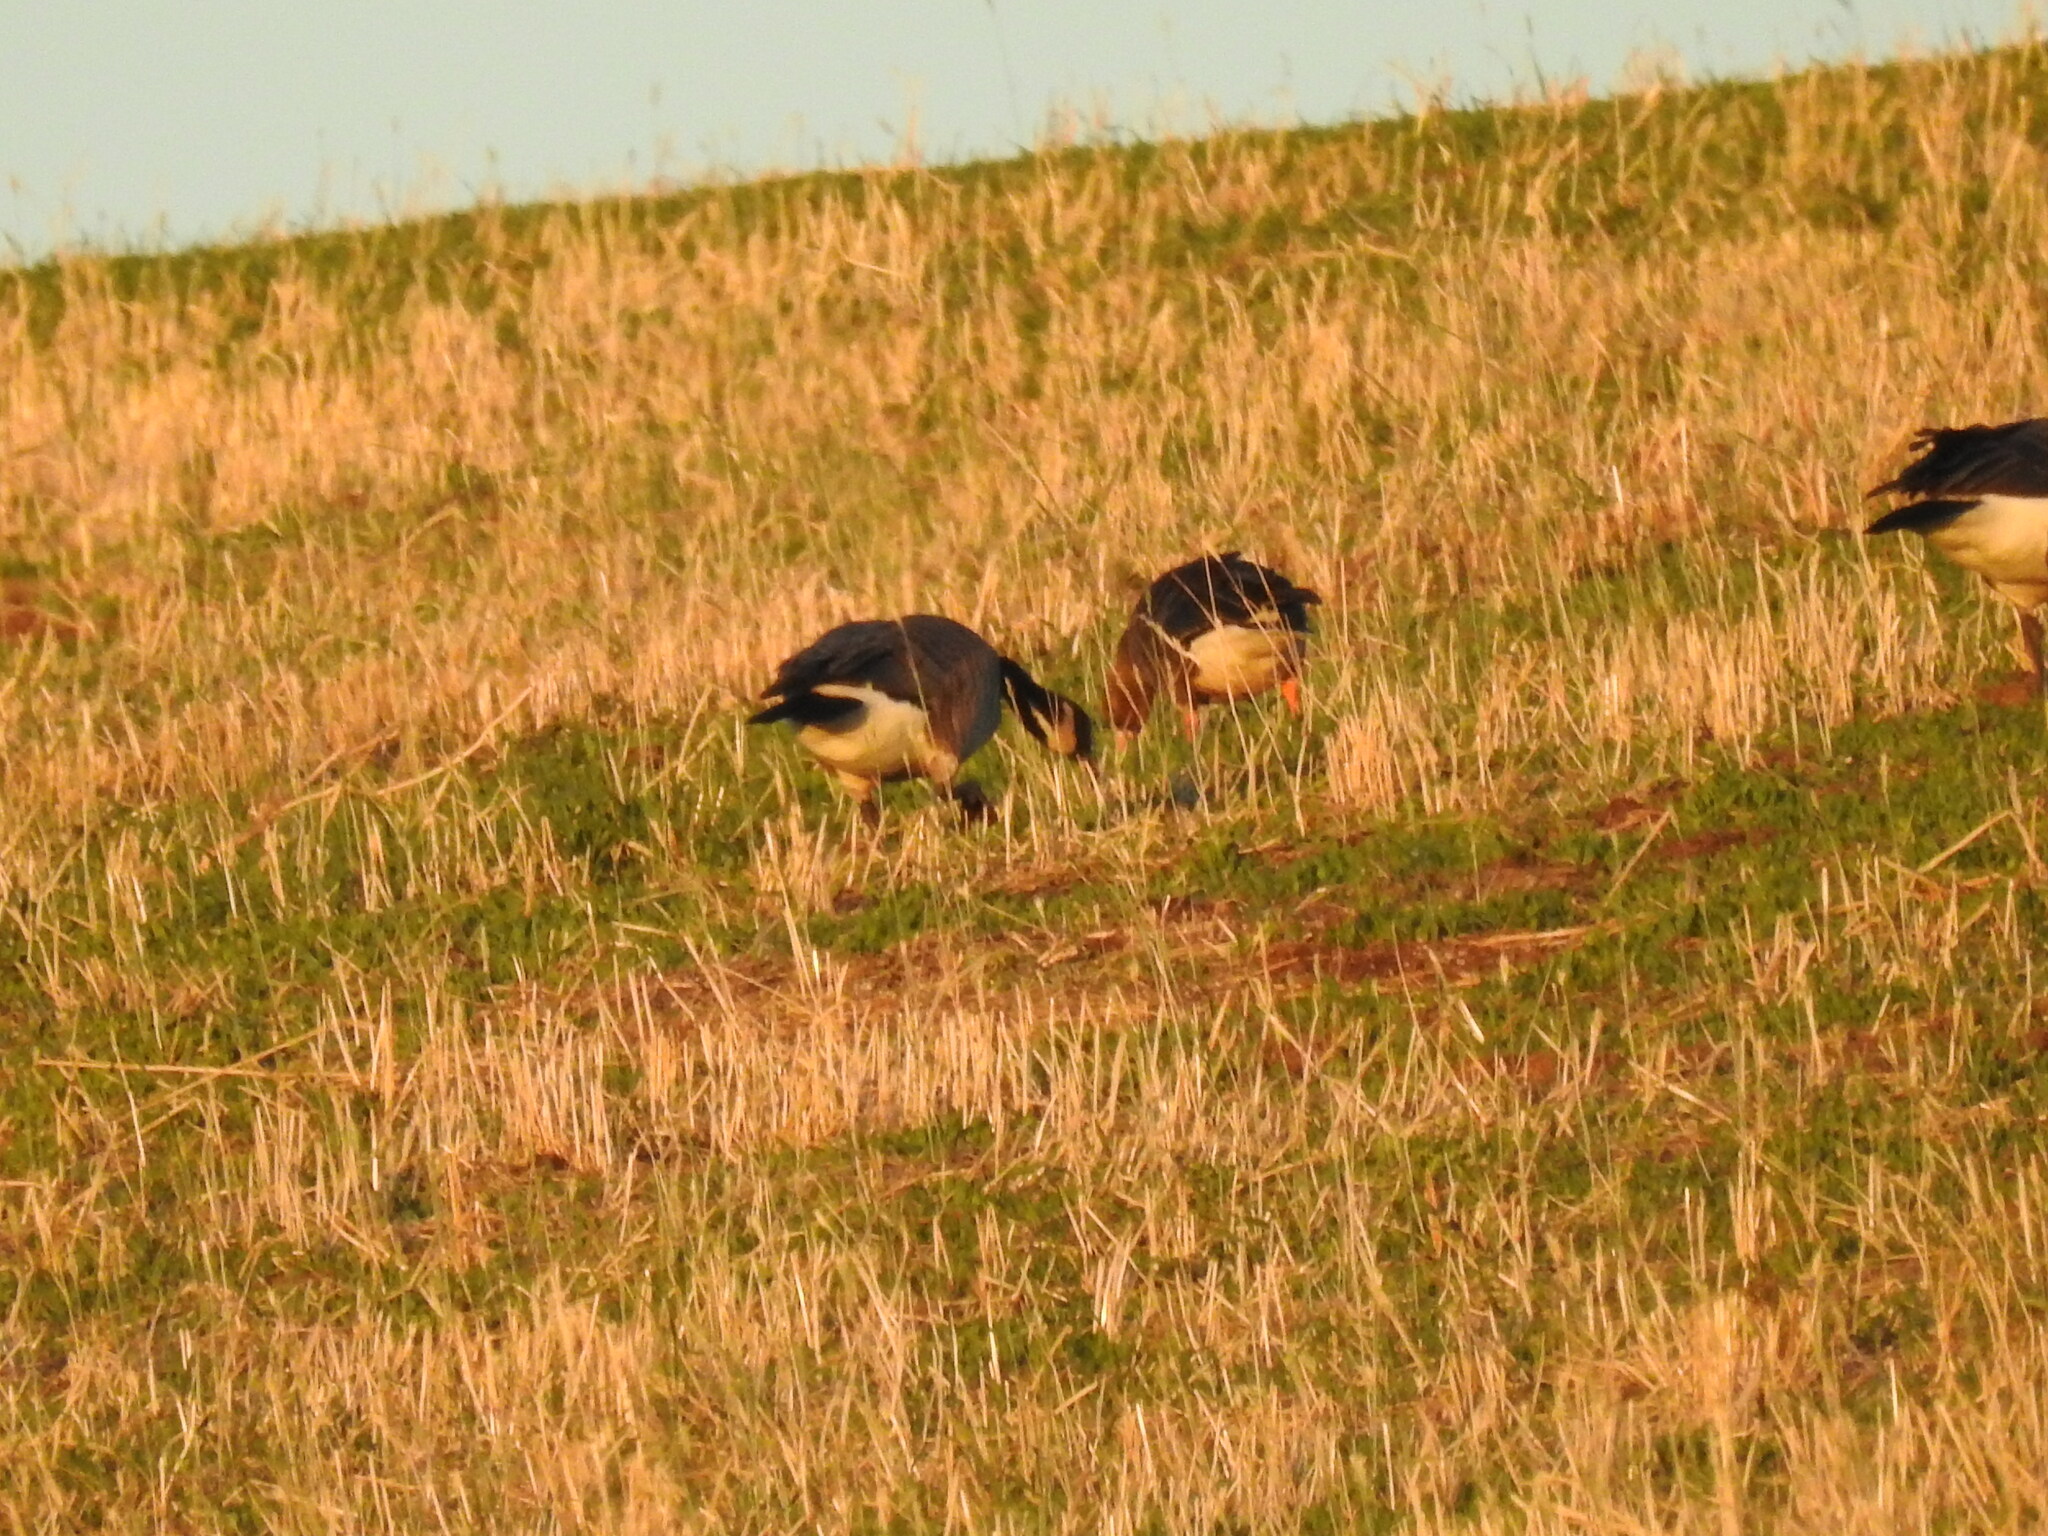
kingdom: Animalia
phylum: Chordata
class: Aves
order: Anseriformes
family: Anatidae
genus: Anser
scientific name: Anser albifrons
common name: Greater white-fronted goose
